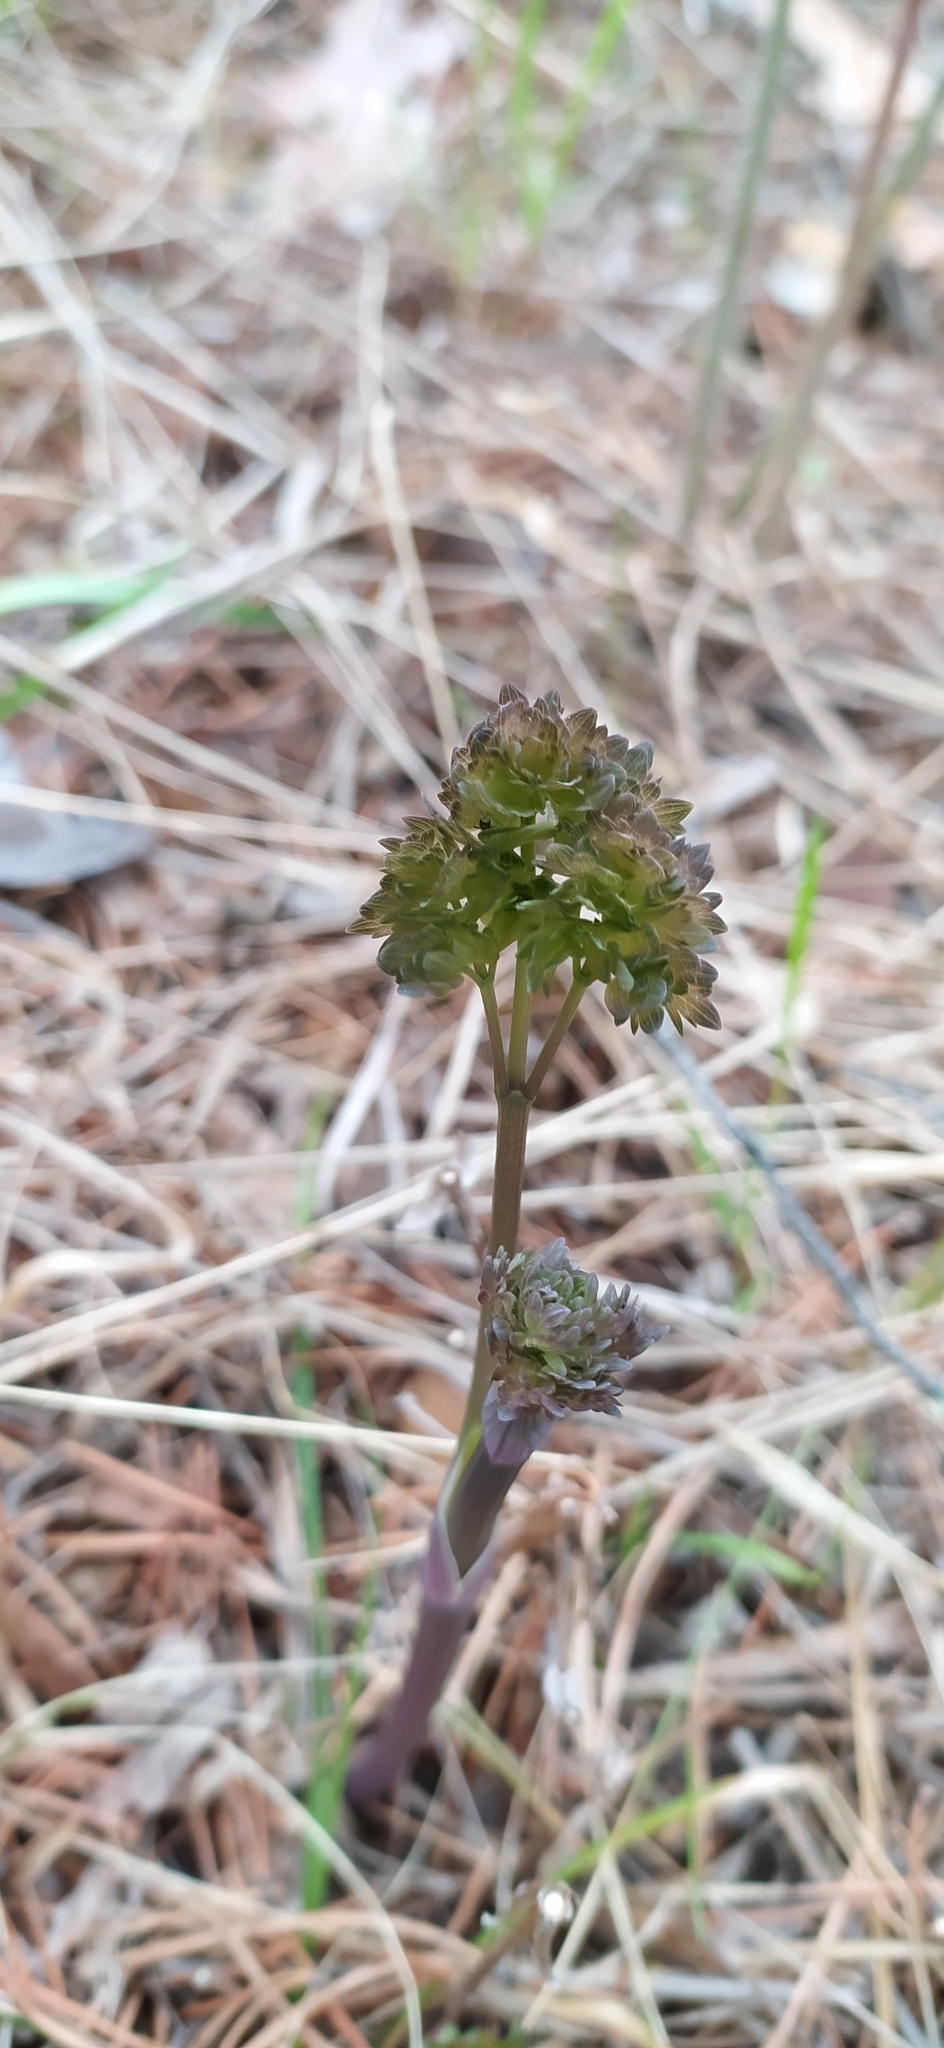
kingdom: Plantae
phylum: Tracheophyta
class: Magnoliopsida
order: Ranunculales
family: Ranunculaceae
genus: Thalictrum
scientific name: Thalictrum minus
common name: Lesser meadow-rue
